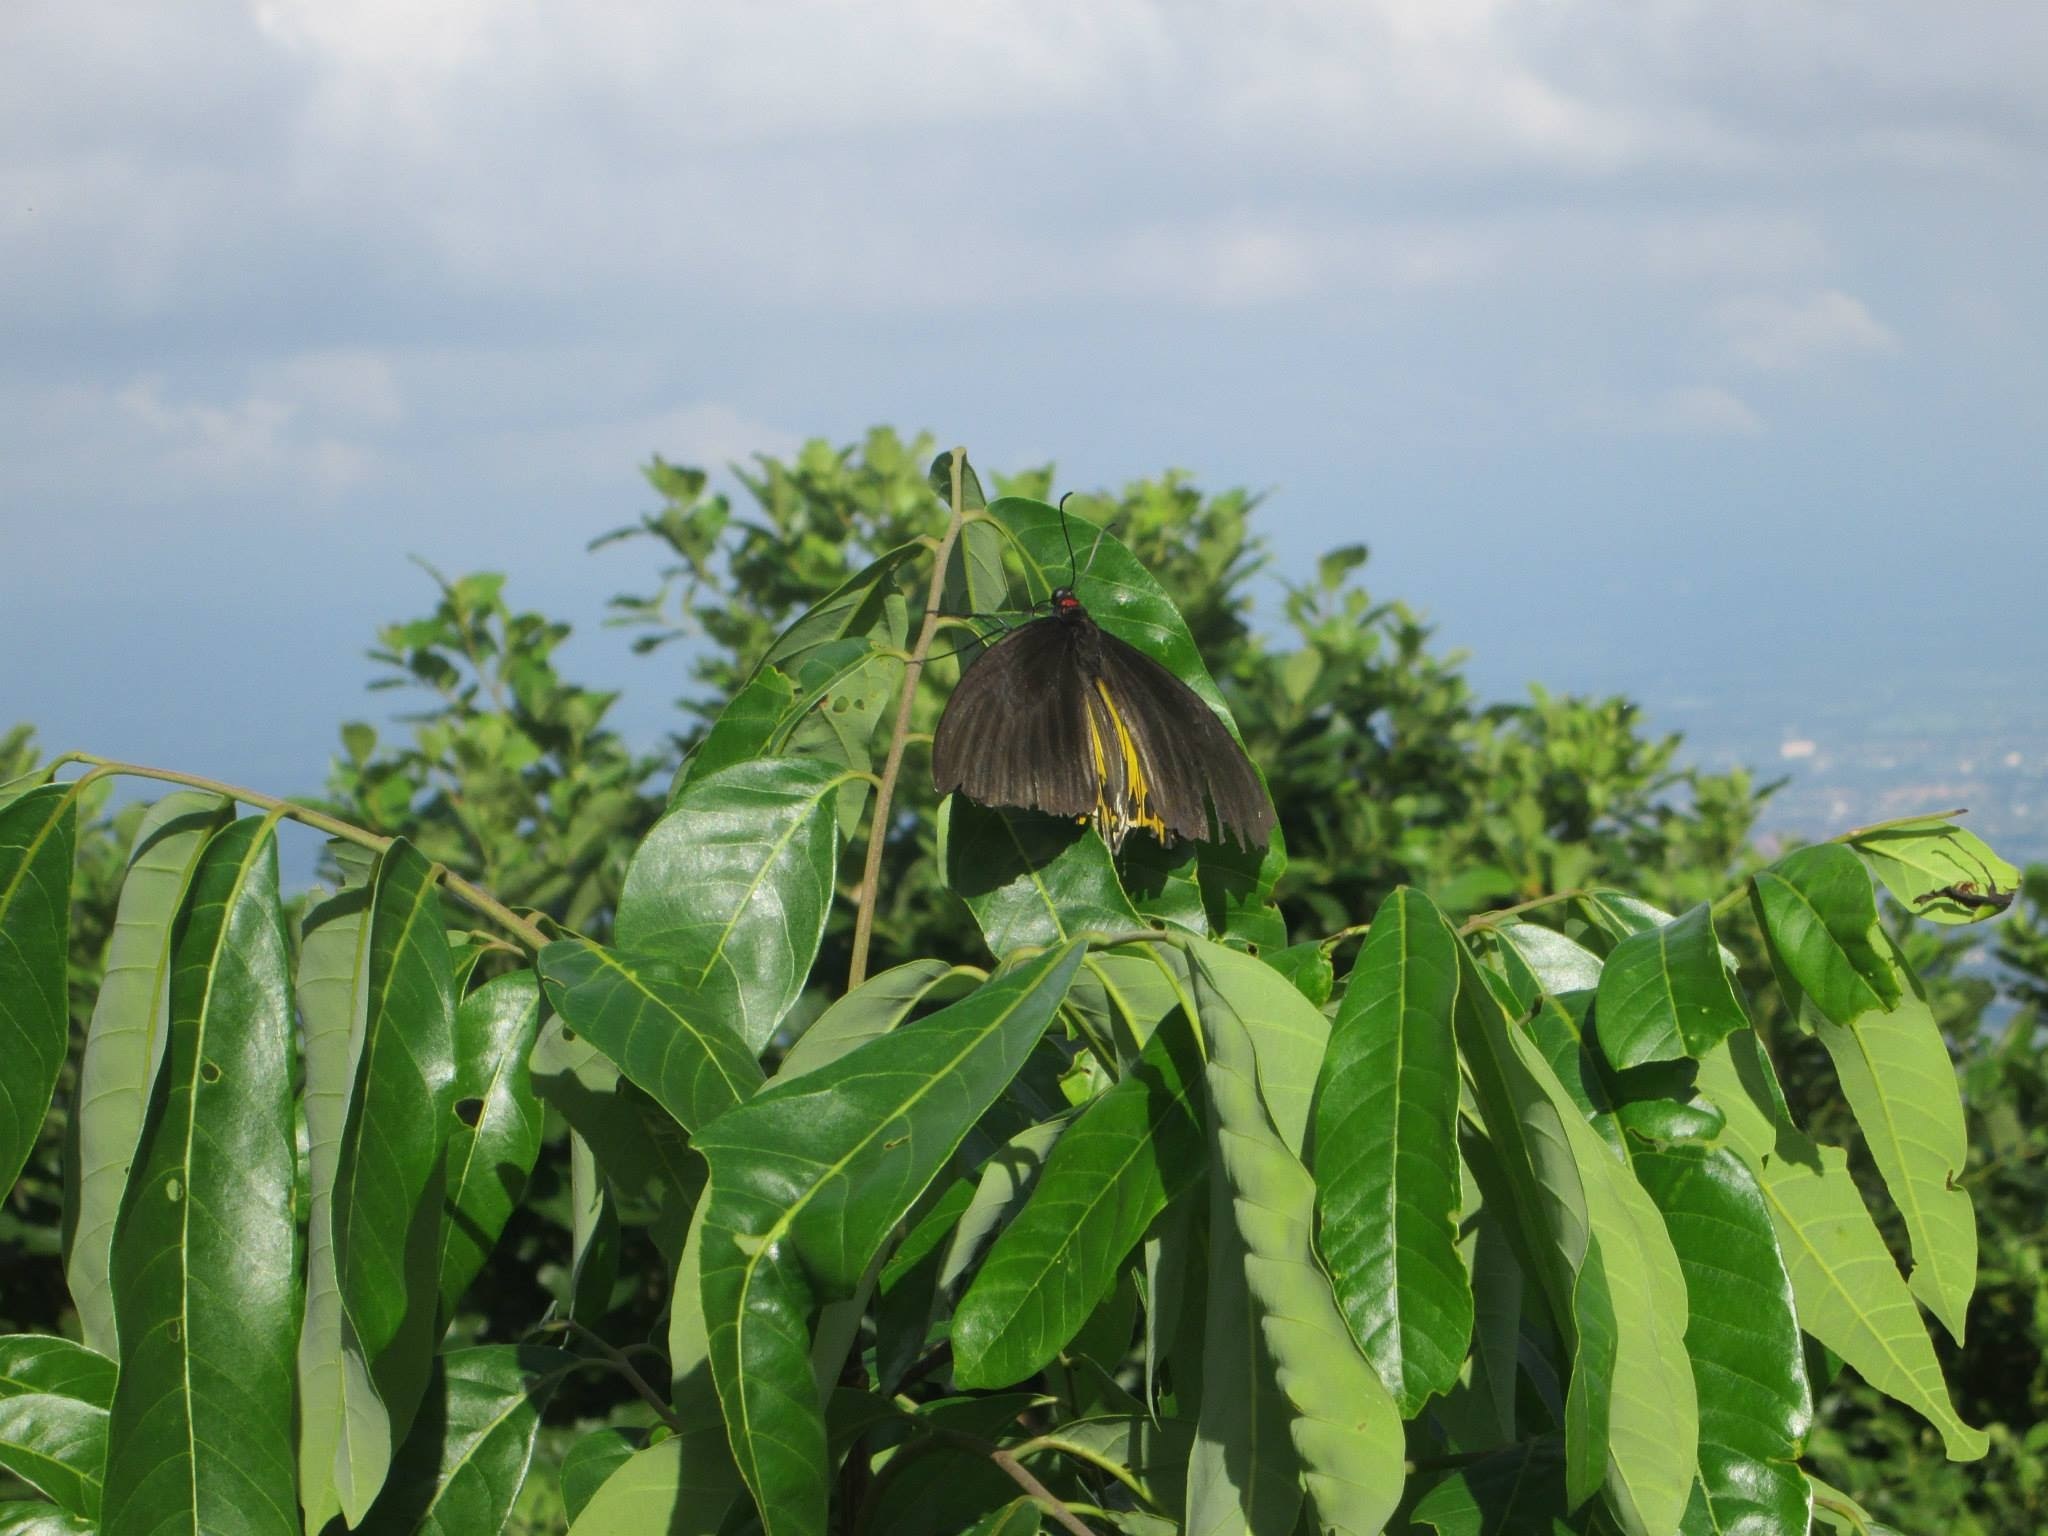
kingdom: Animalia
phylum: Arthropoda
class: Insecta
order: Lepidoptera
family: Papilionidae
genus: Troides
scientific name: Troides helena
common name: Common birdwing
